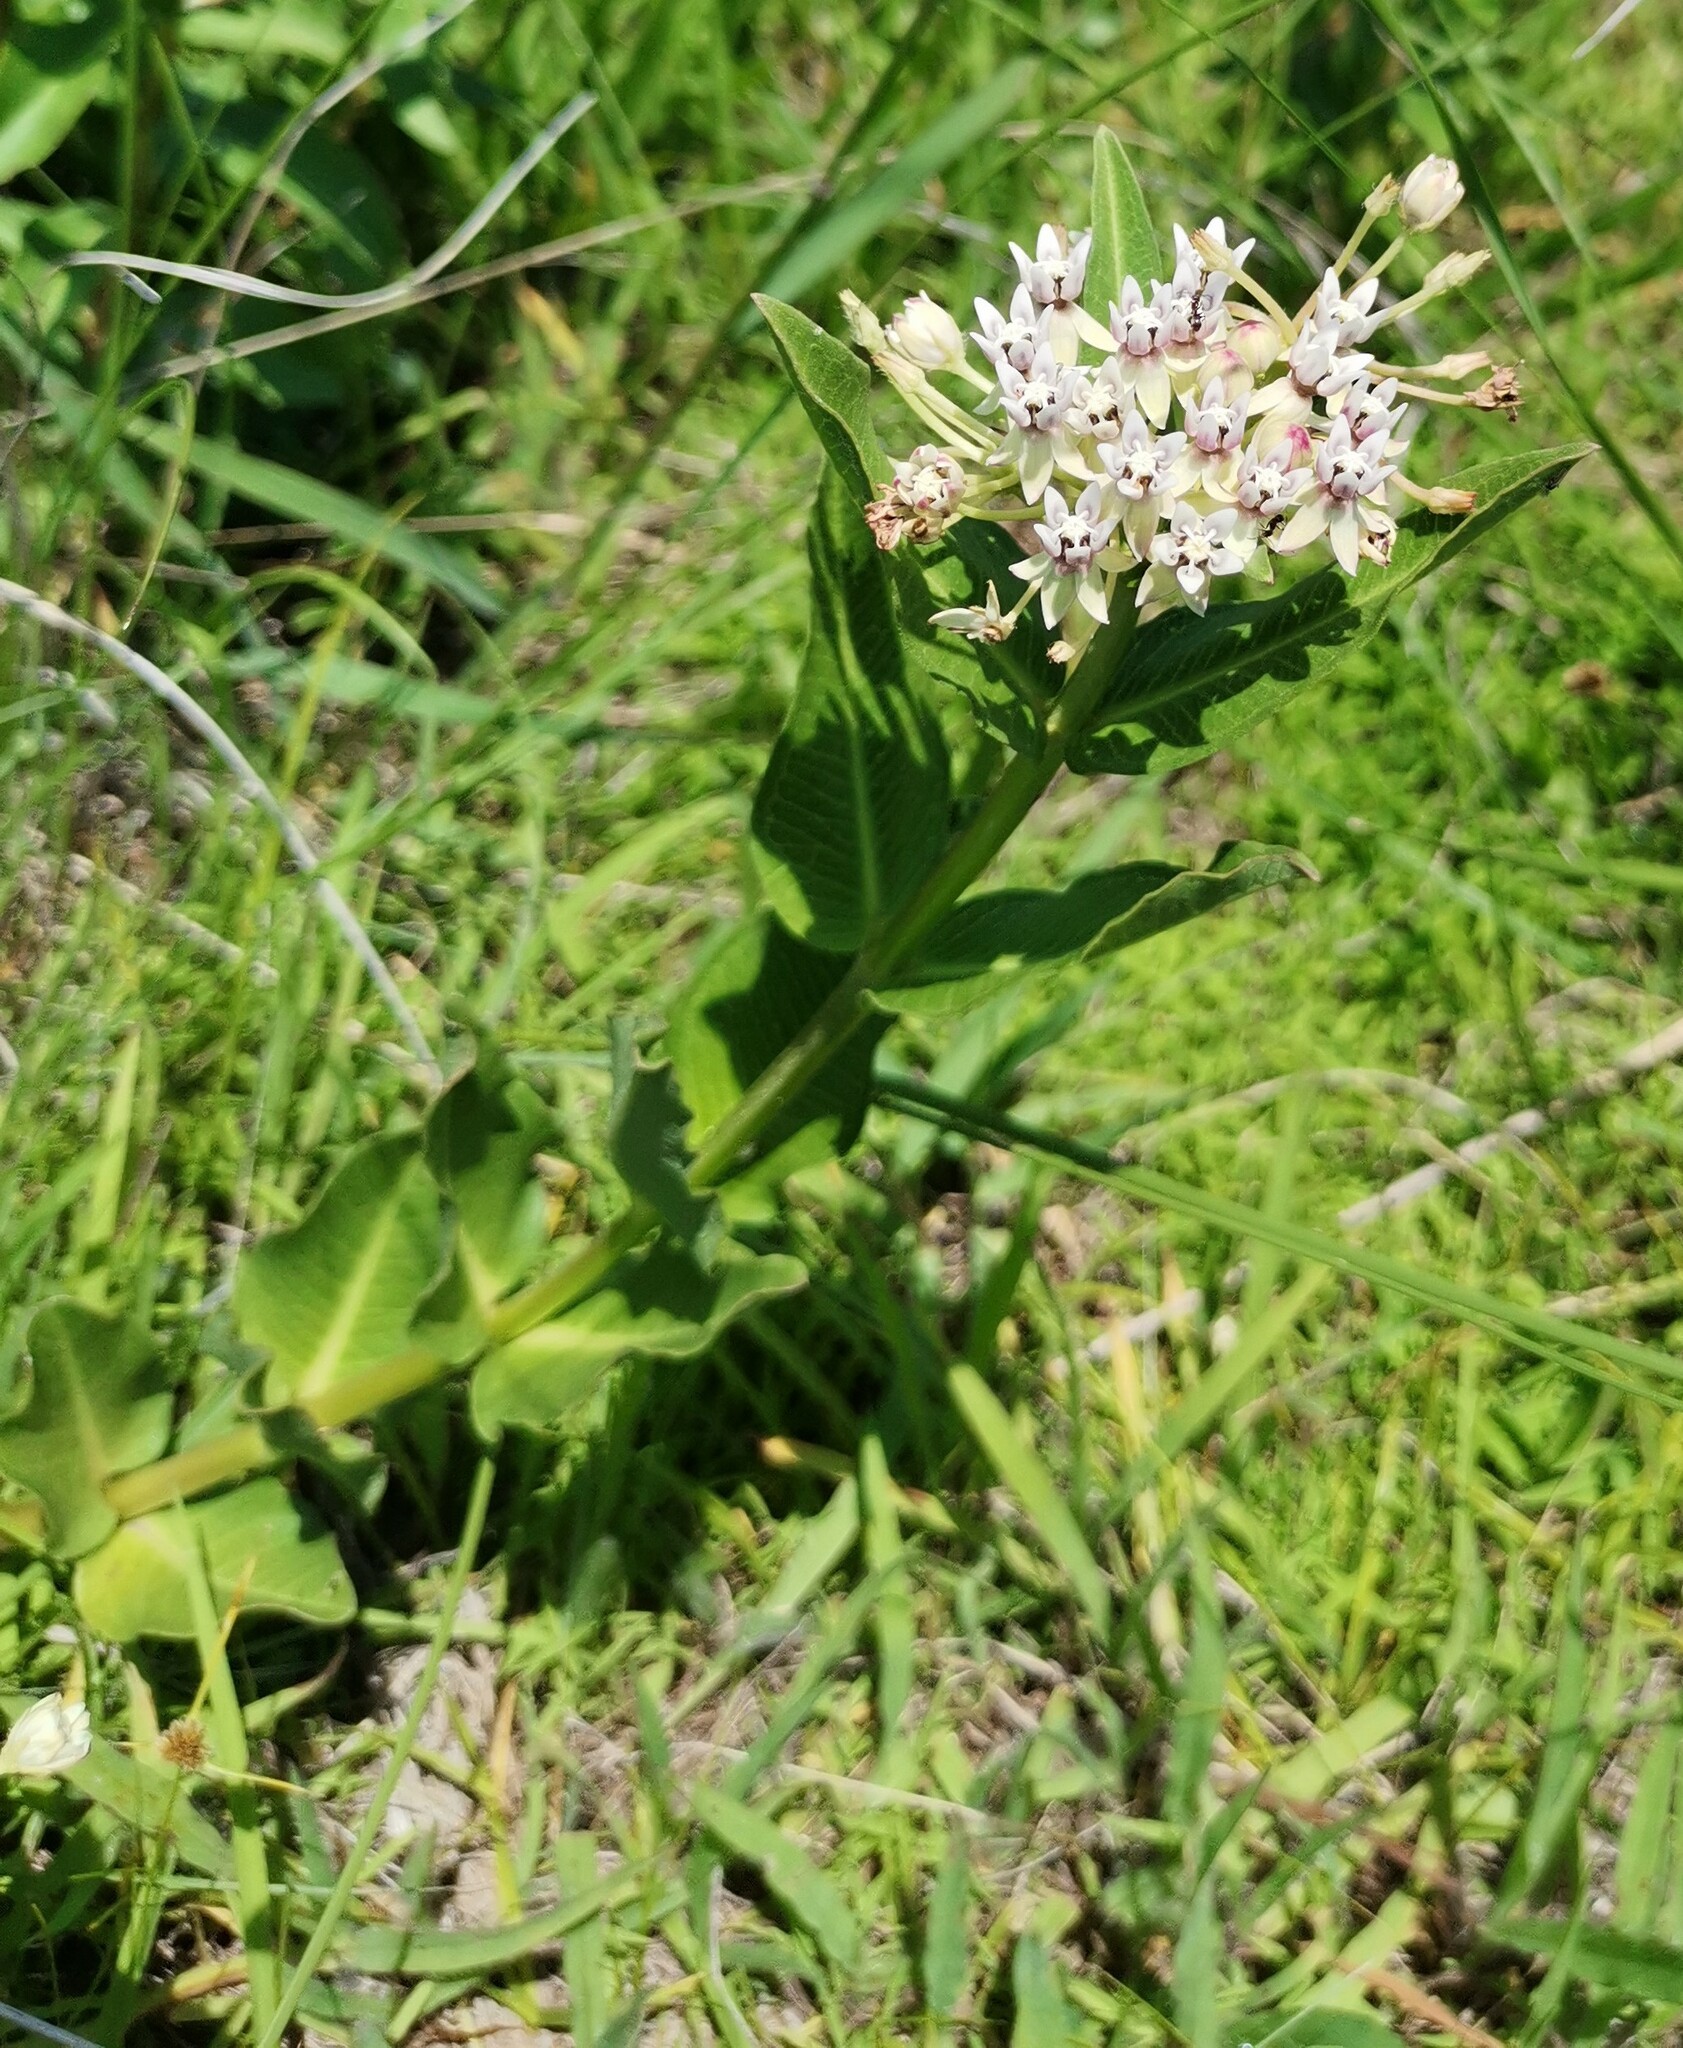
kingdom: Plantae
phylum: Tracheophyta
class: Magnoliopsida
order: Gentianales
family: Apocynaceae
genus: Asclepias
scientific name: Asclepias pratensis
